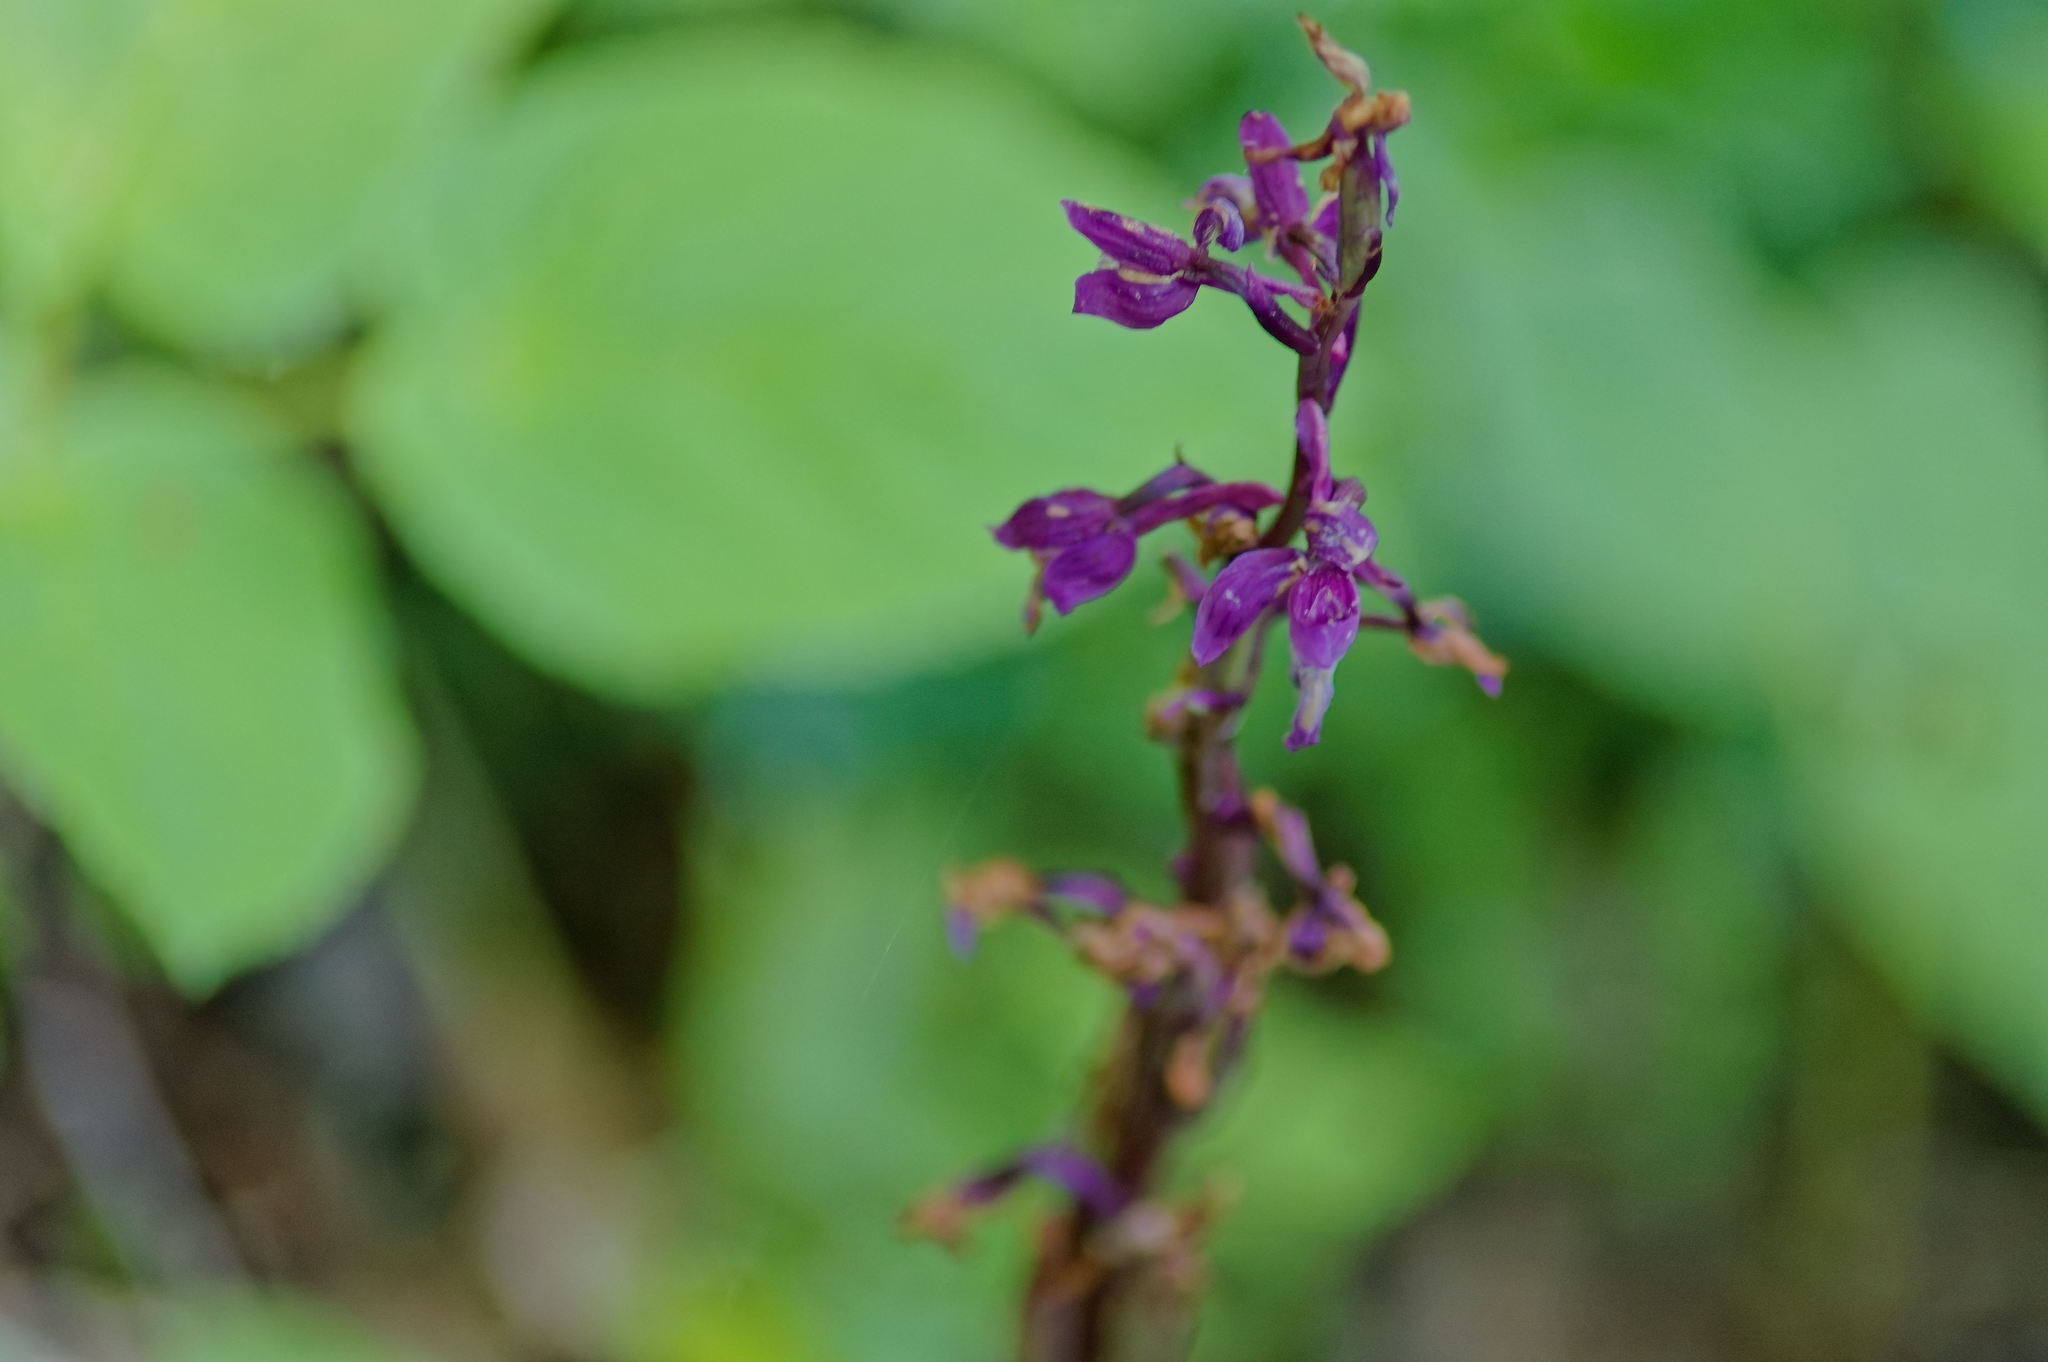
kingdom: Plantae
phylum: Tracheophyta
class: Liliopsida
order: Asparagales
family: Orchidaceae
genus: Orchis
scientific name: Orchis mascula
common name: Early-purple orchid
